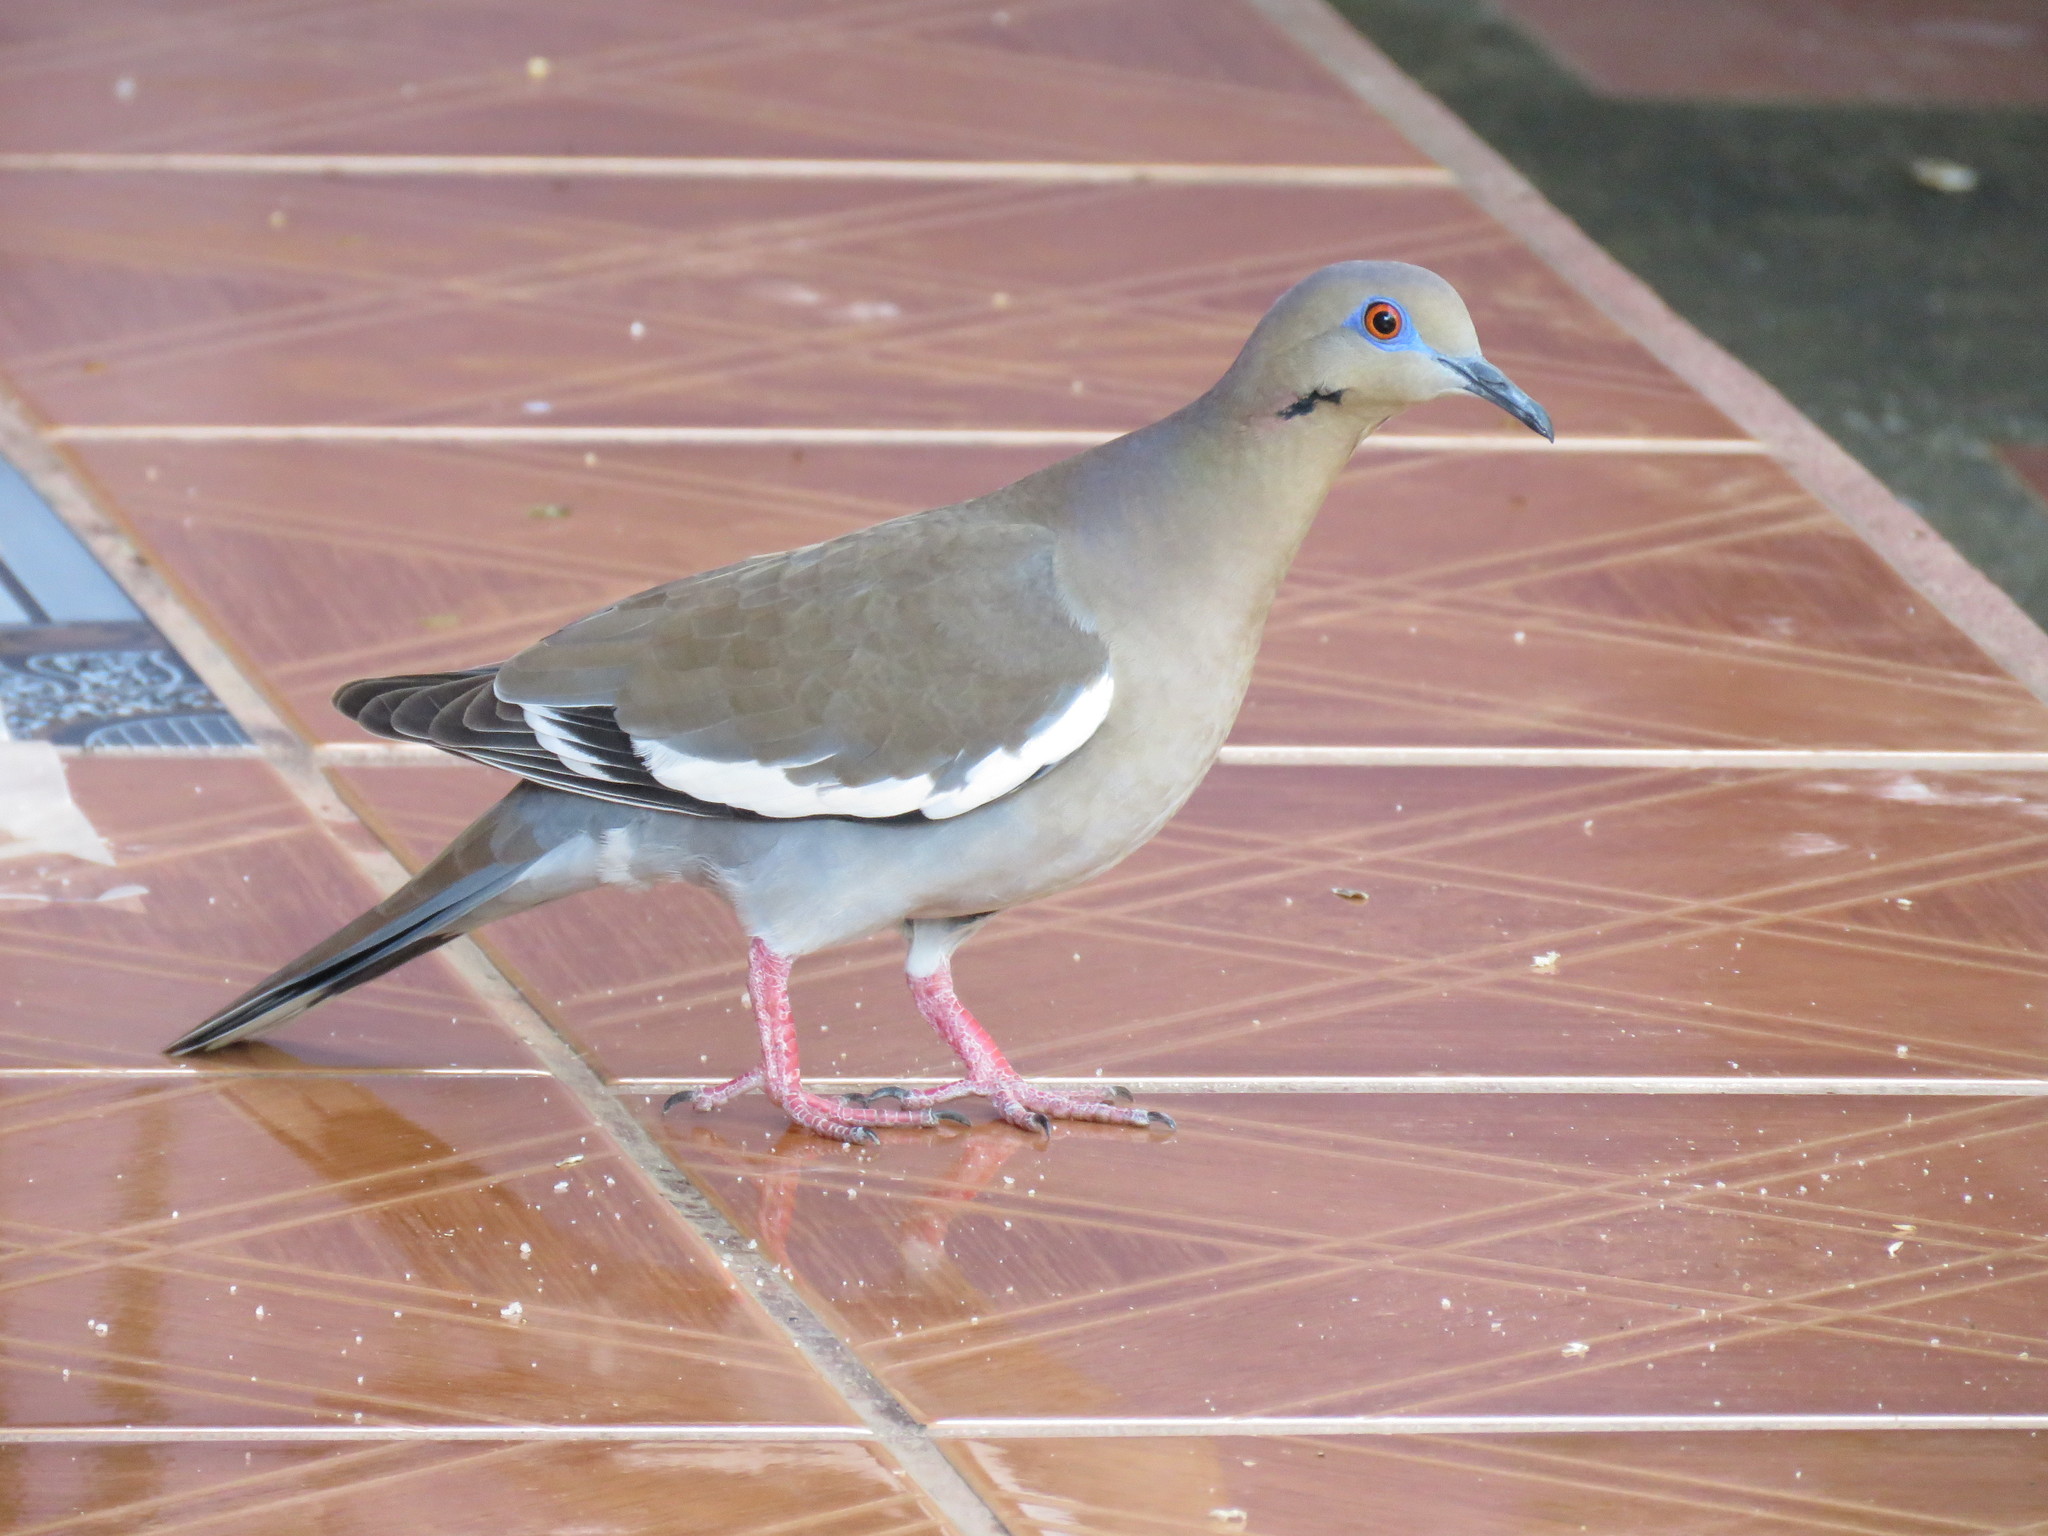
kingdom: Animalia
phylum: Chordata
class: Aves
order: Columbiformes
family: Columbidae
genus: Zenaida
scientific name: Zenaida asiatica
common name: White-winged dove
